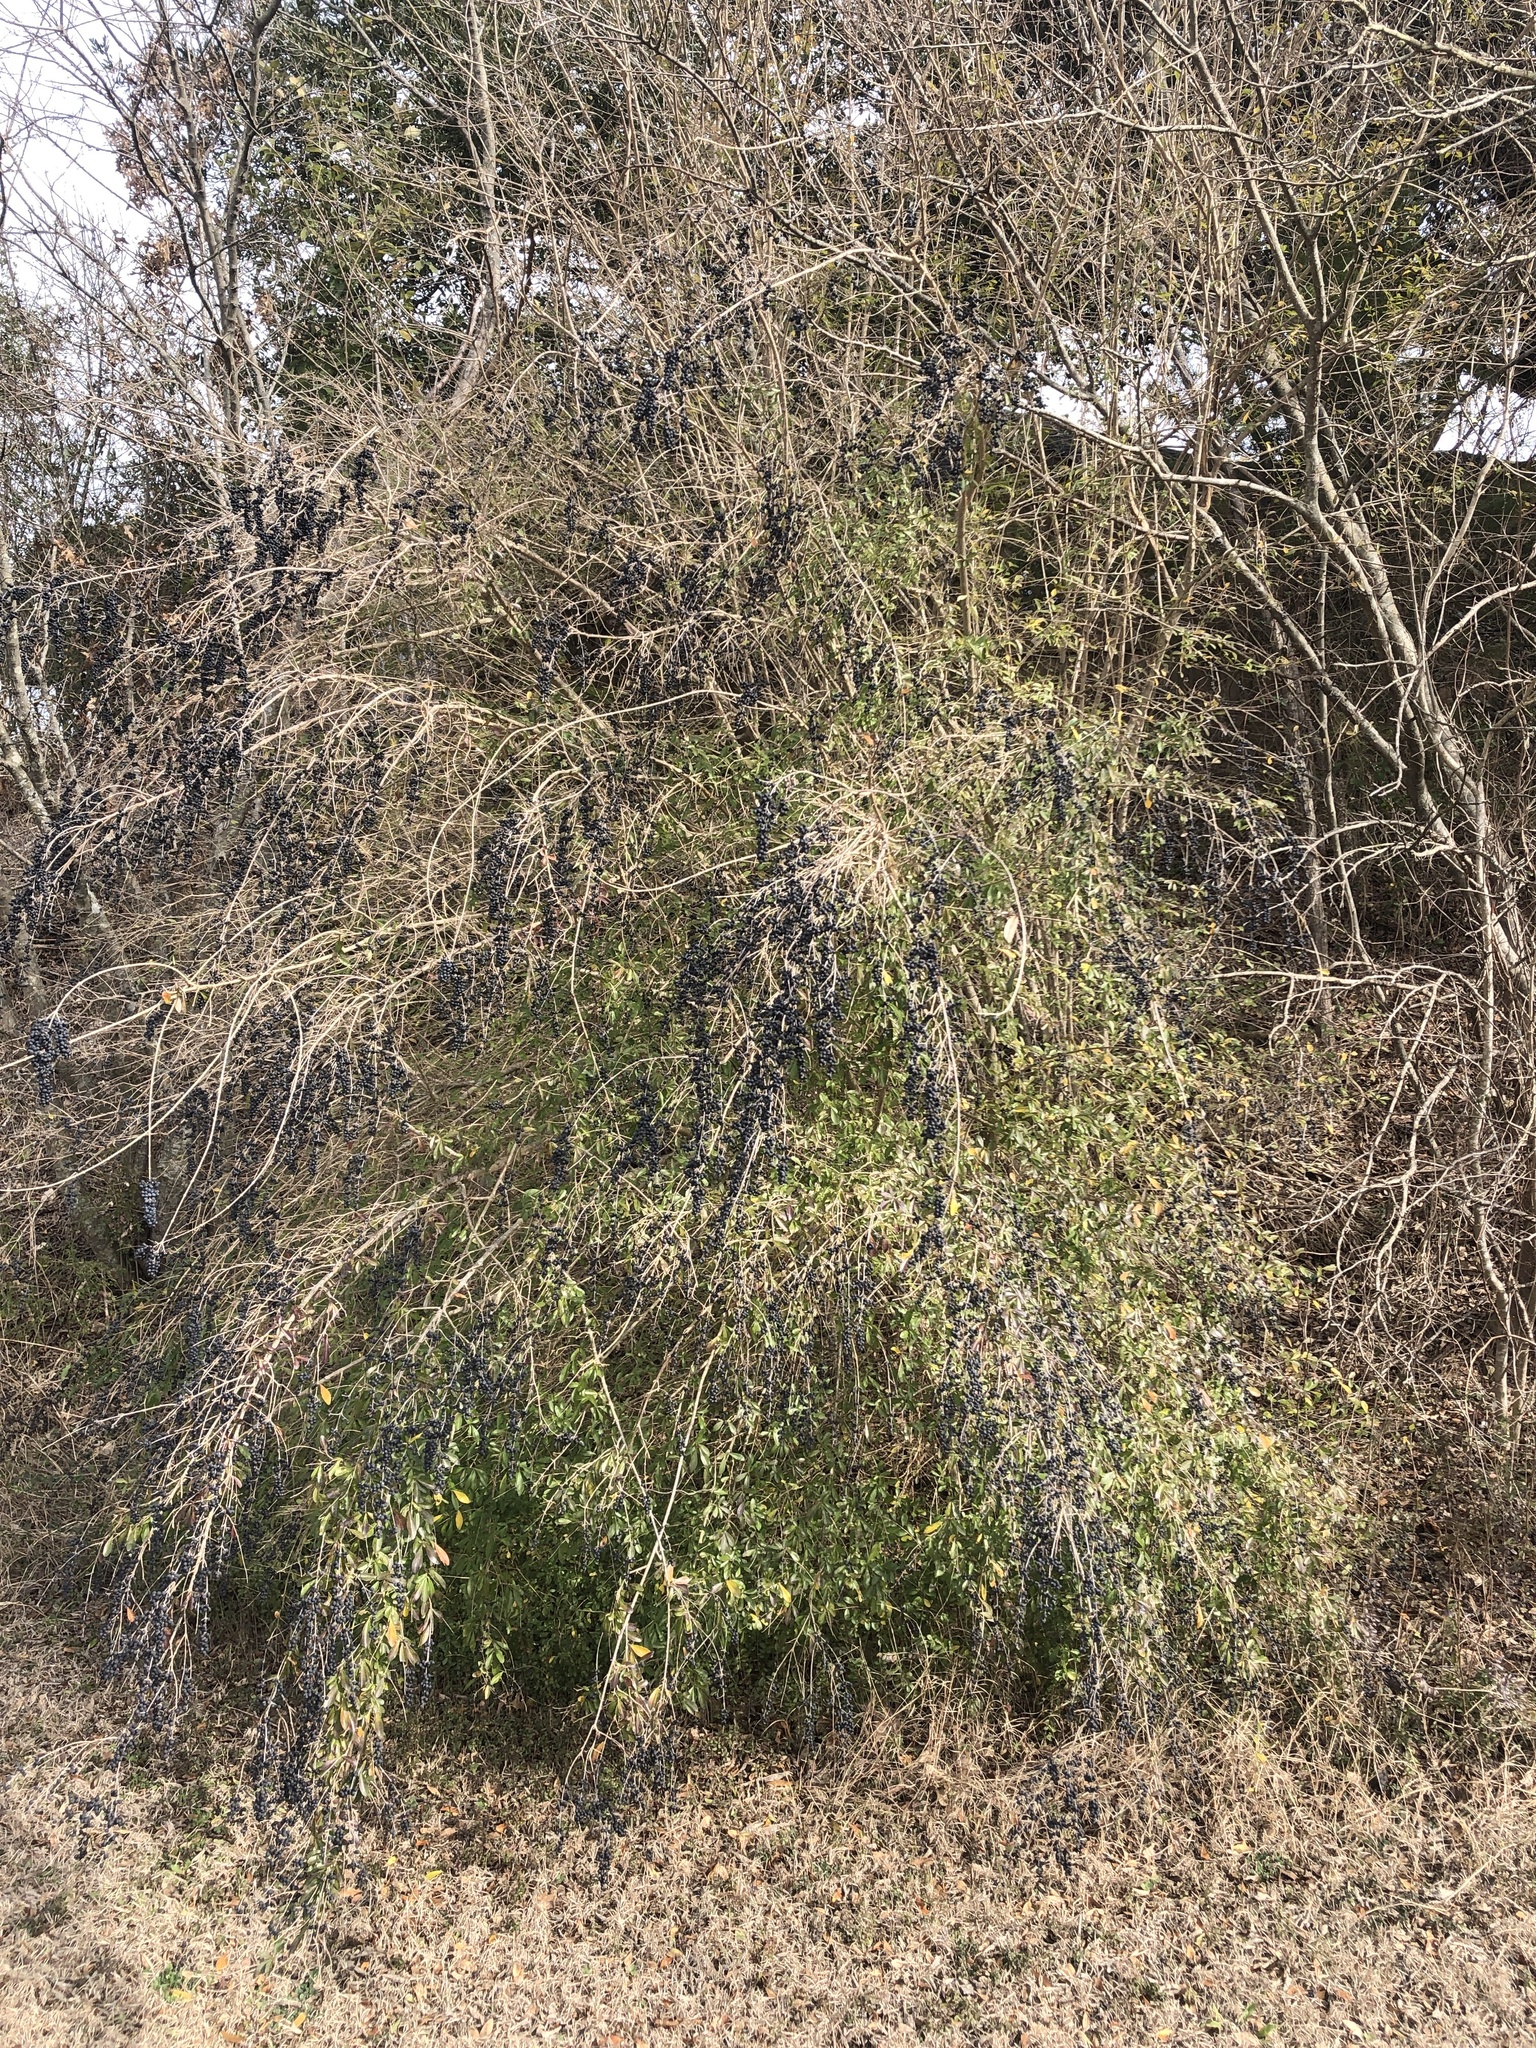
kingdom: Plantae
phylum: Tracheophyta
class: Magnoliopsida
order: Lamiales
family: Oleaceae
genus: Ligustrum
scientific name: Ligustrum quihoui
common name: Waxyleaf privet
